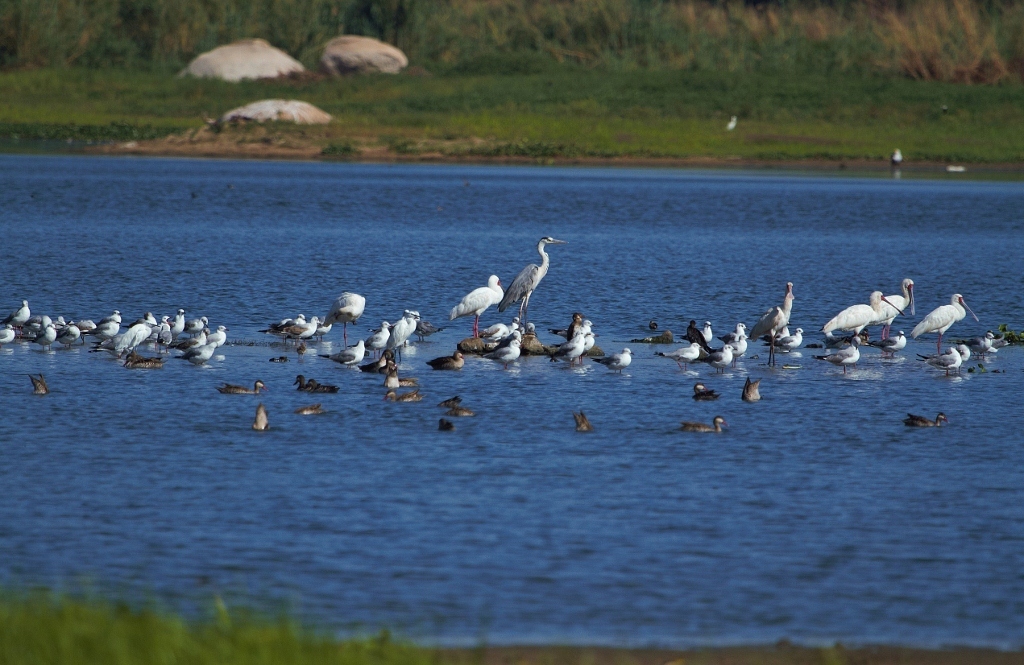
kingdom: Animalia
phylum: Chordata
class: Aves
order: Pelecaniformes
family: Ardeidae
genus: Egretta
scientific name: Egretta garzetta
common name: Little egret
